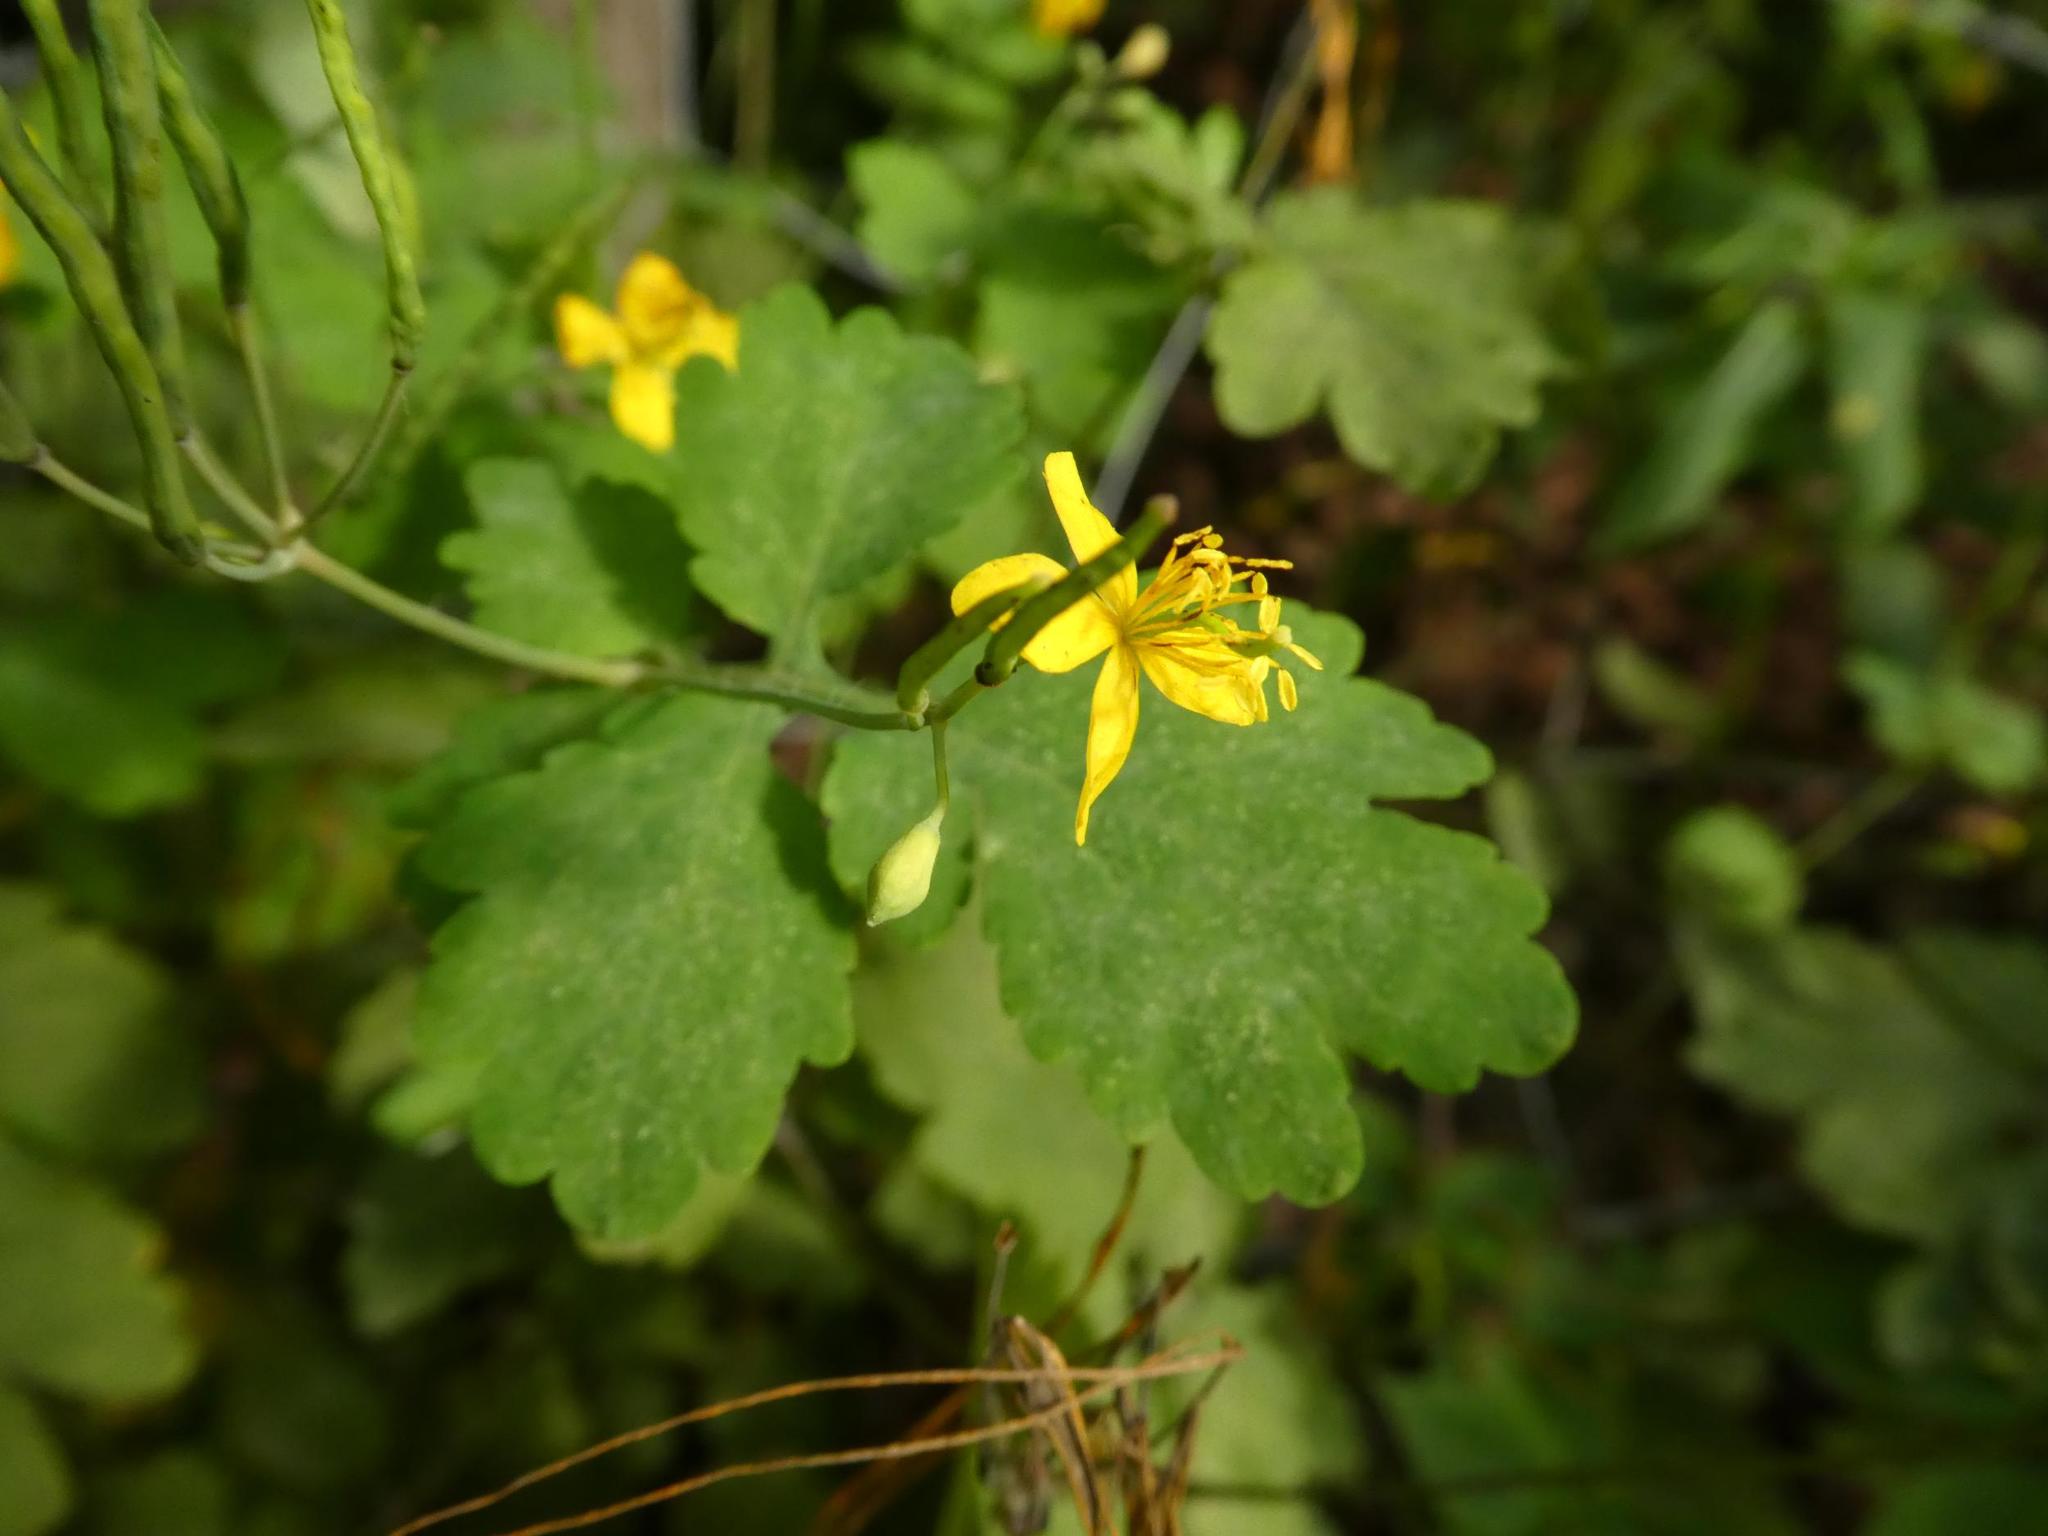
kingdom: Plantae
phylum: Tracheophyta
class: Magnoliopsida
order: Ranunculales
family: Papaveraceae
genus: Chelidonium
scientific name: Chelidonium majus
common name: Greater celandine
